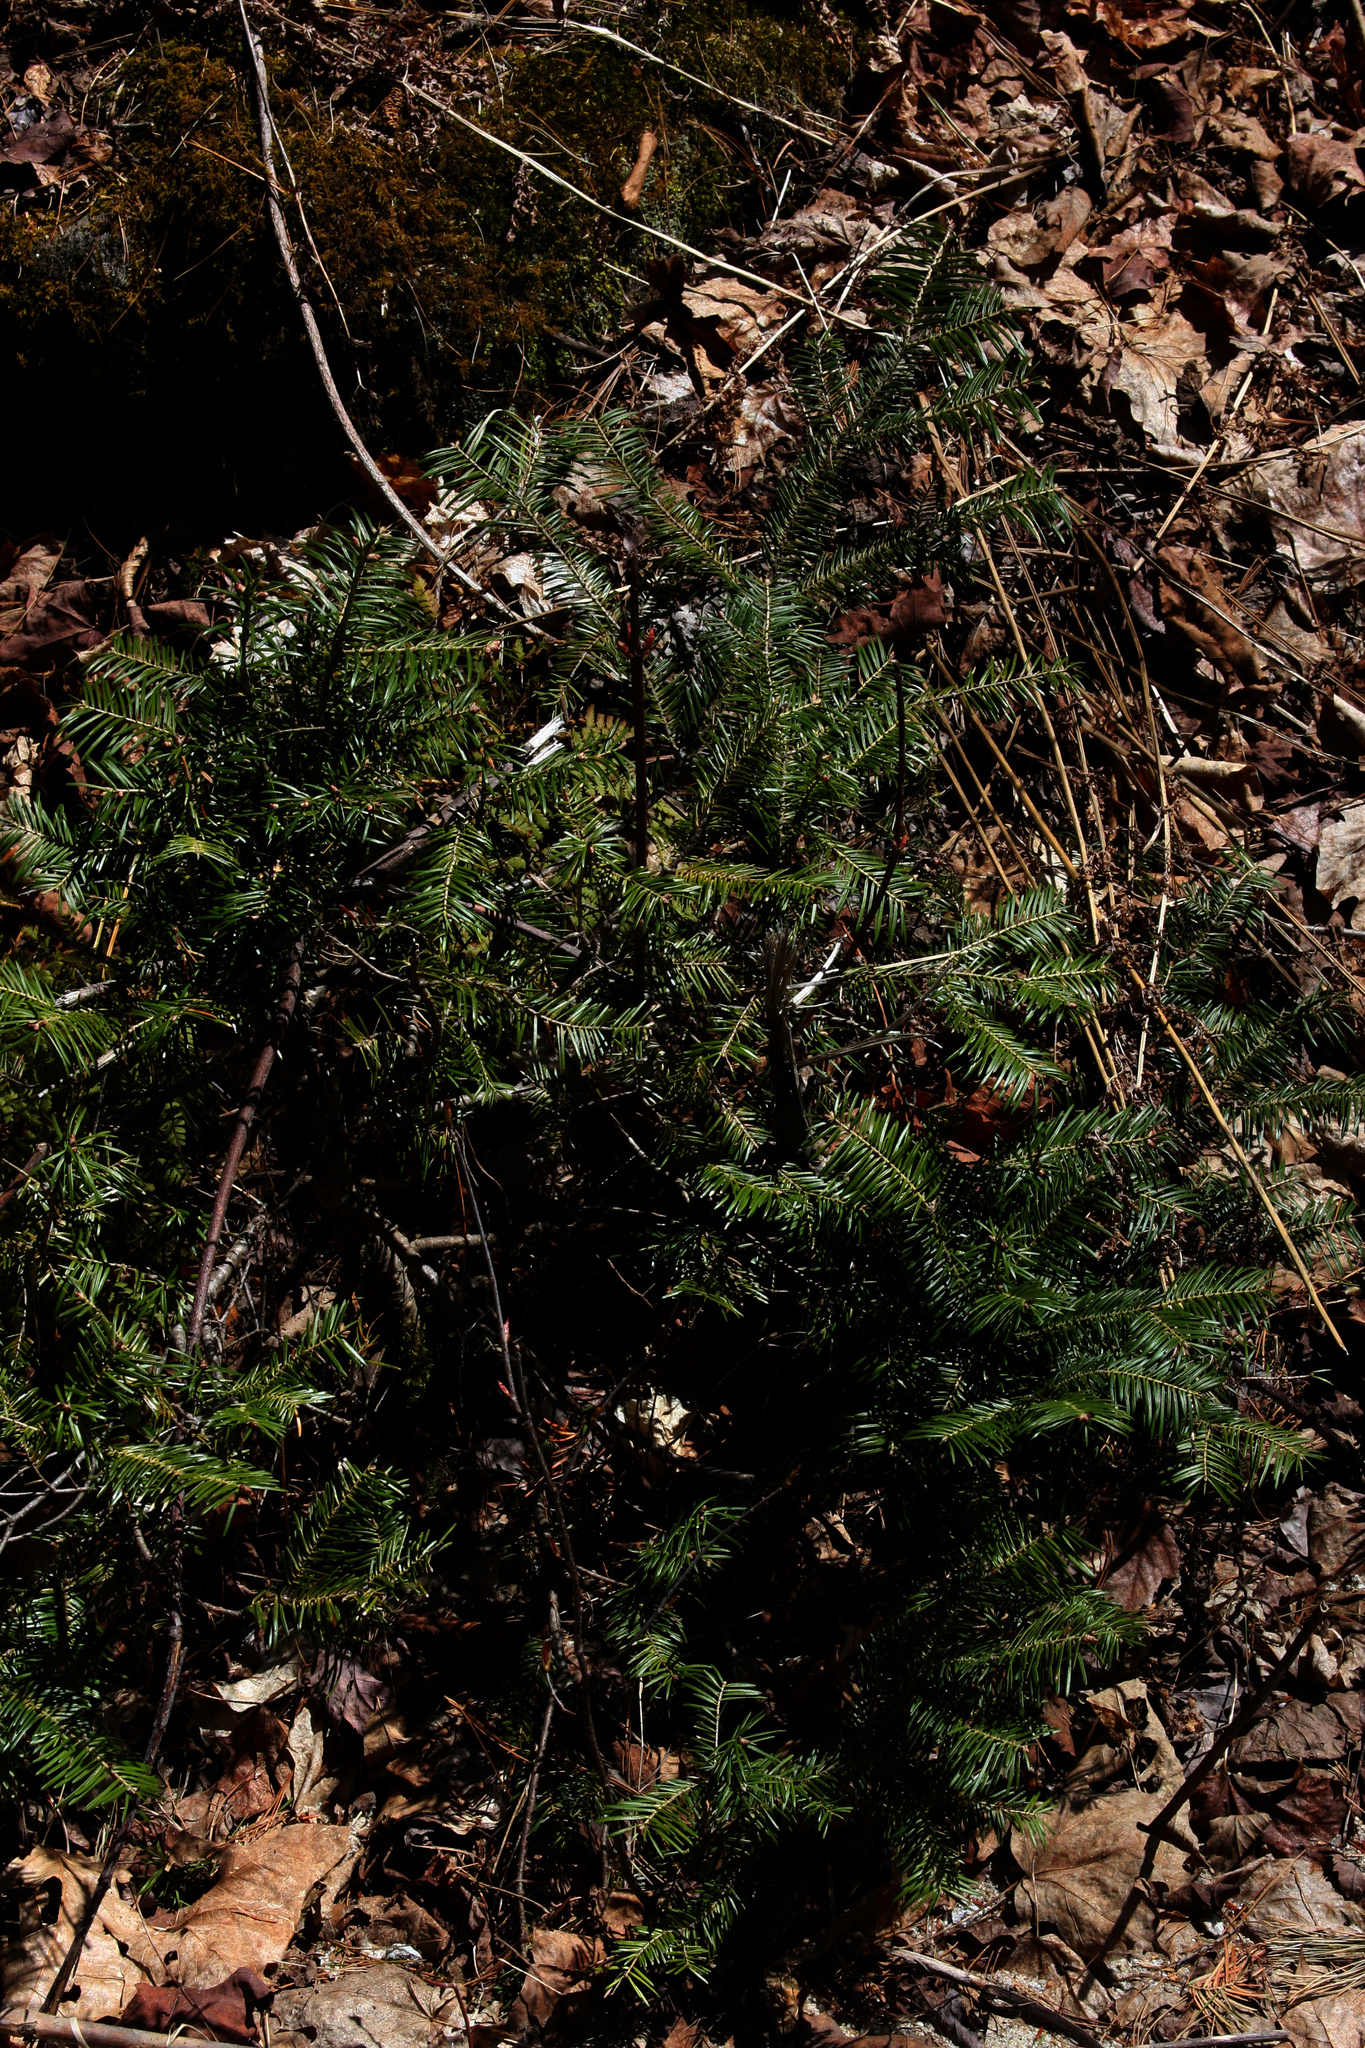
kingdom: Plantae
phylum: Tracheophyta
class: Pinopsida
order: Pinales
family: Pinaceae
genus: Abies
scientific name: Abies balsamea
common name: Balsam fir
